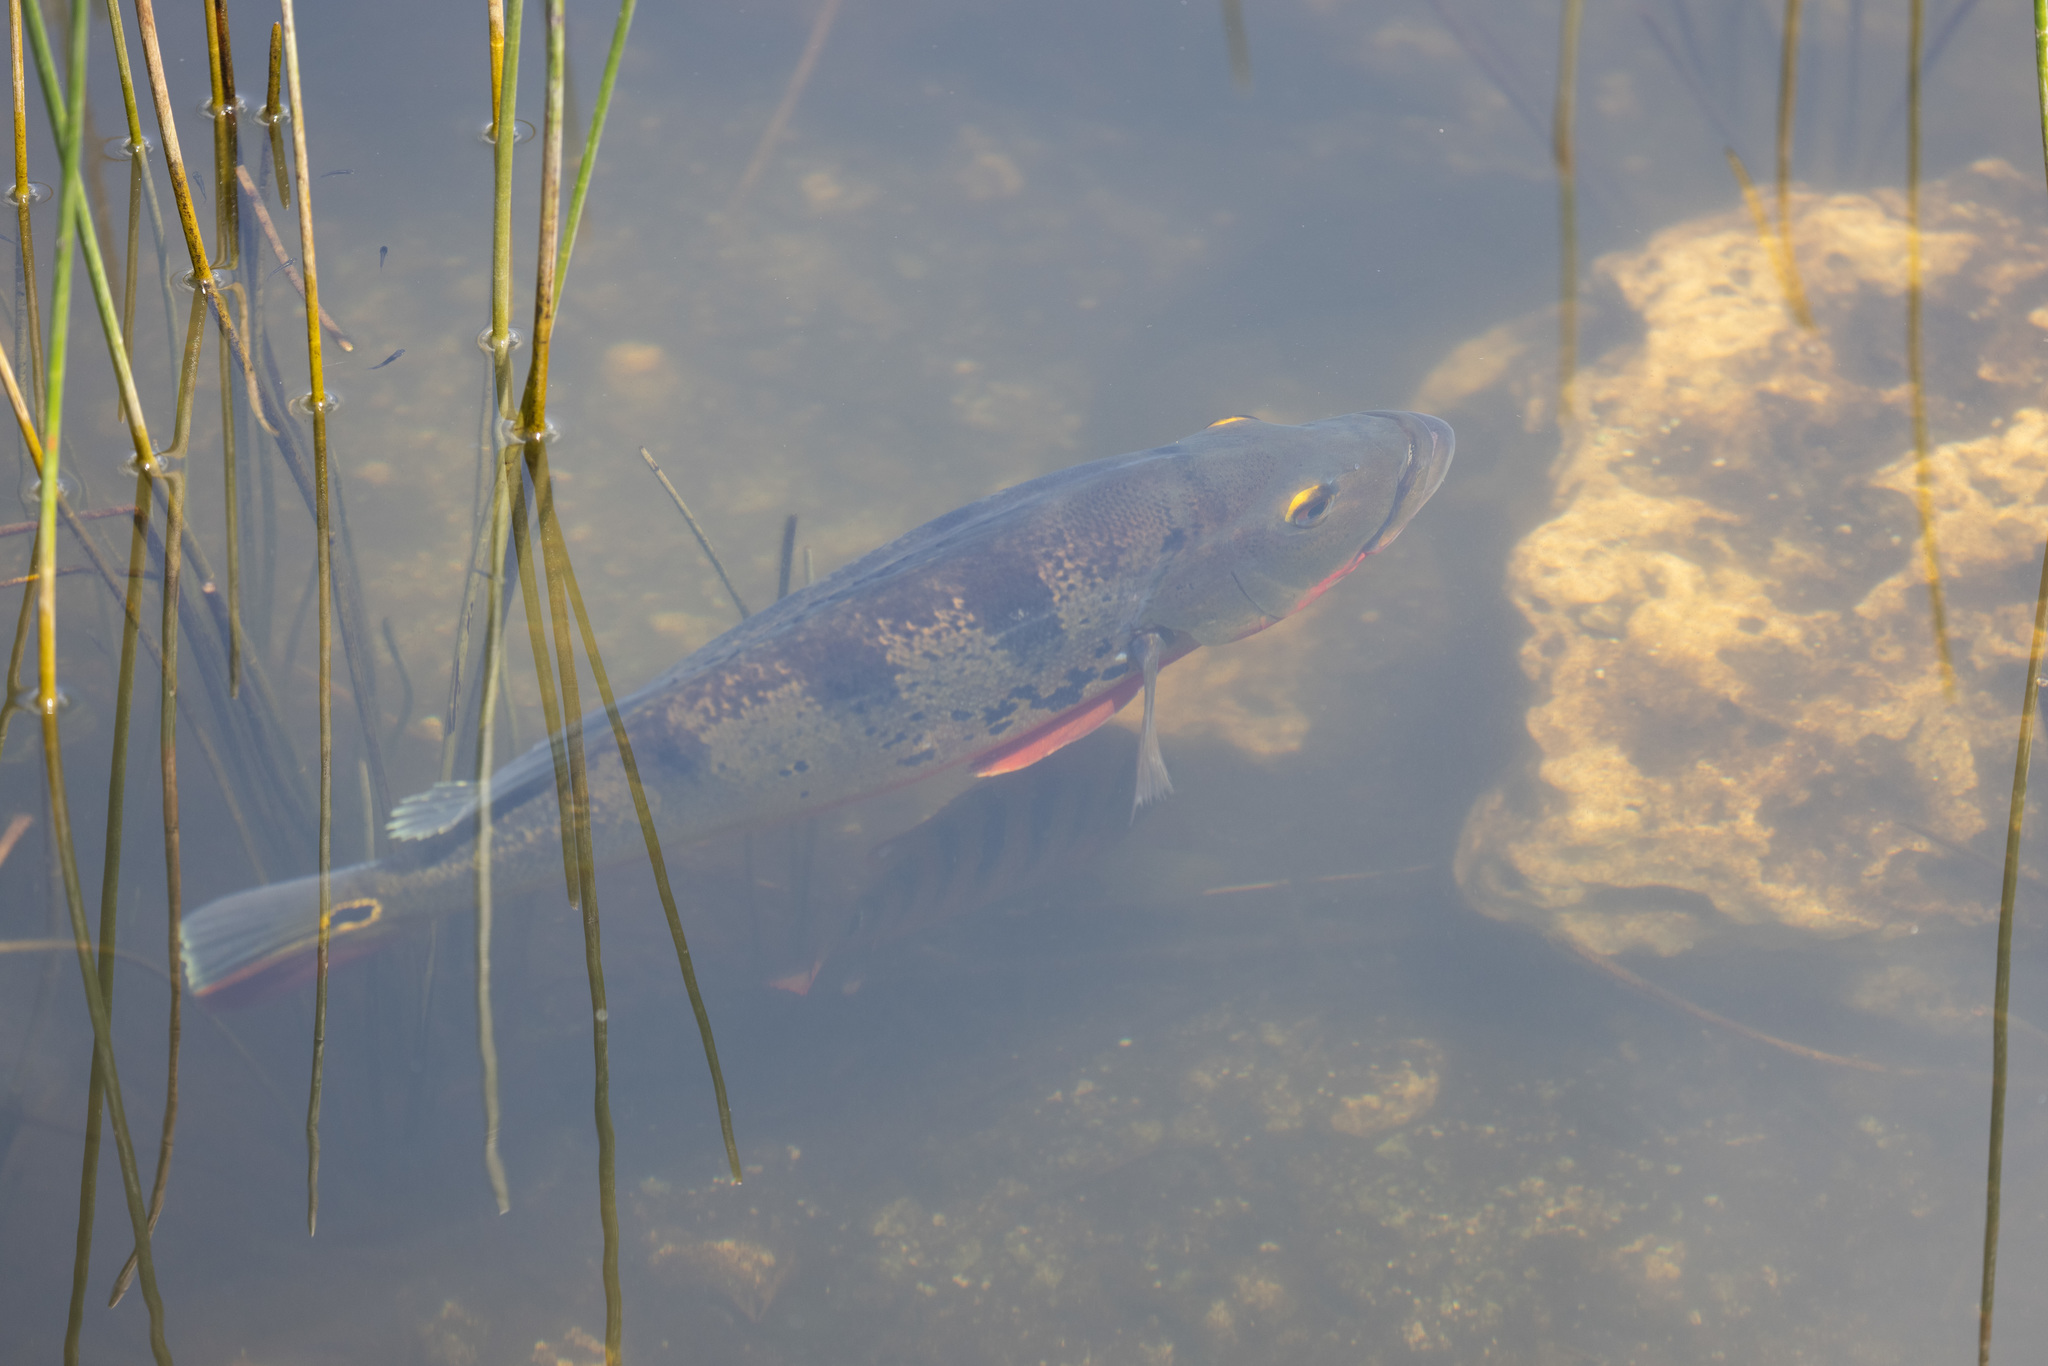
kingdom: Animalia
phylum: Chordata
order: Perciformes
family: Cichlidae
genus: Cichla
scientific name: Cichla ocellaris
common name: Peacock cichlid
